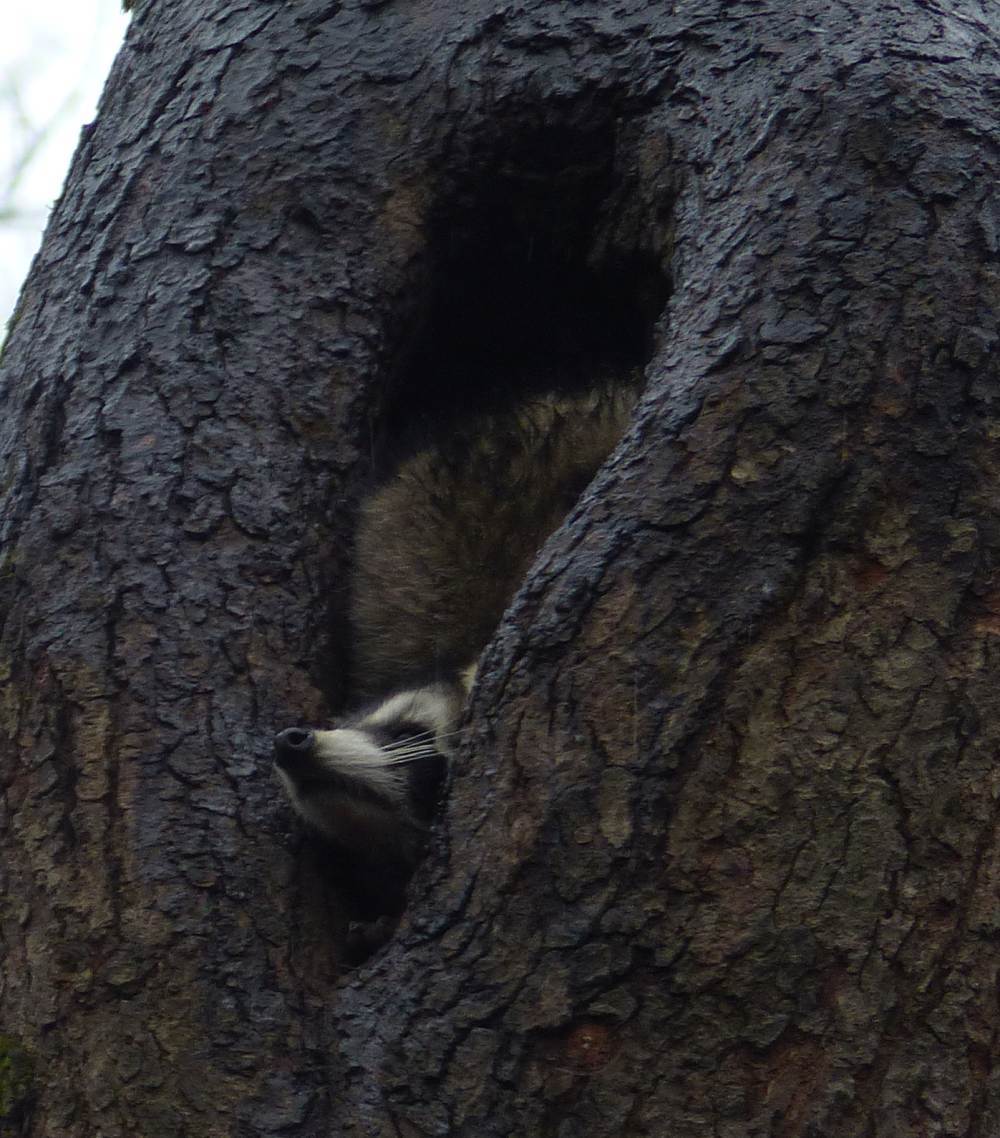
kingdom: Animalia
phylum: Chordata
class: Mammalia
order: Carnivora
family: Procyonidae
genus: Procyon
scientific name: Procyon lotor
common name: Raccoon
